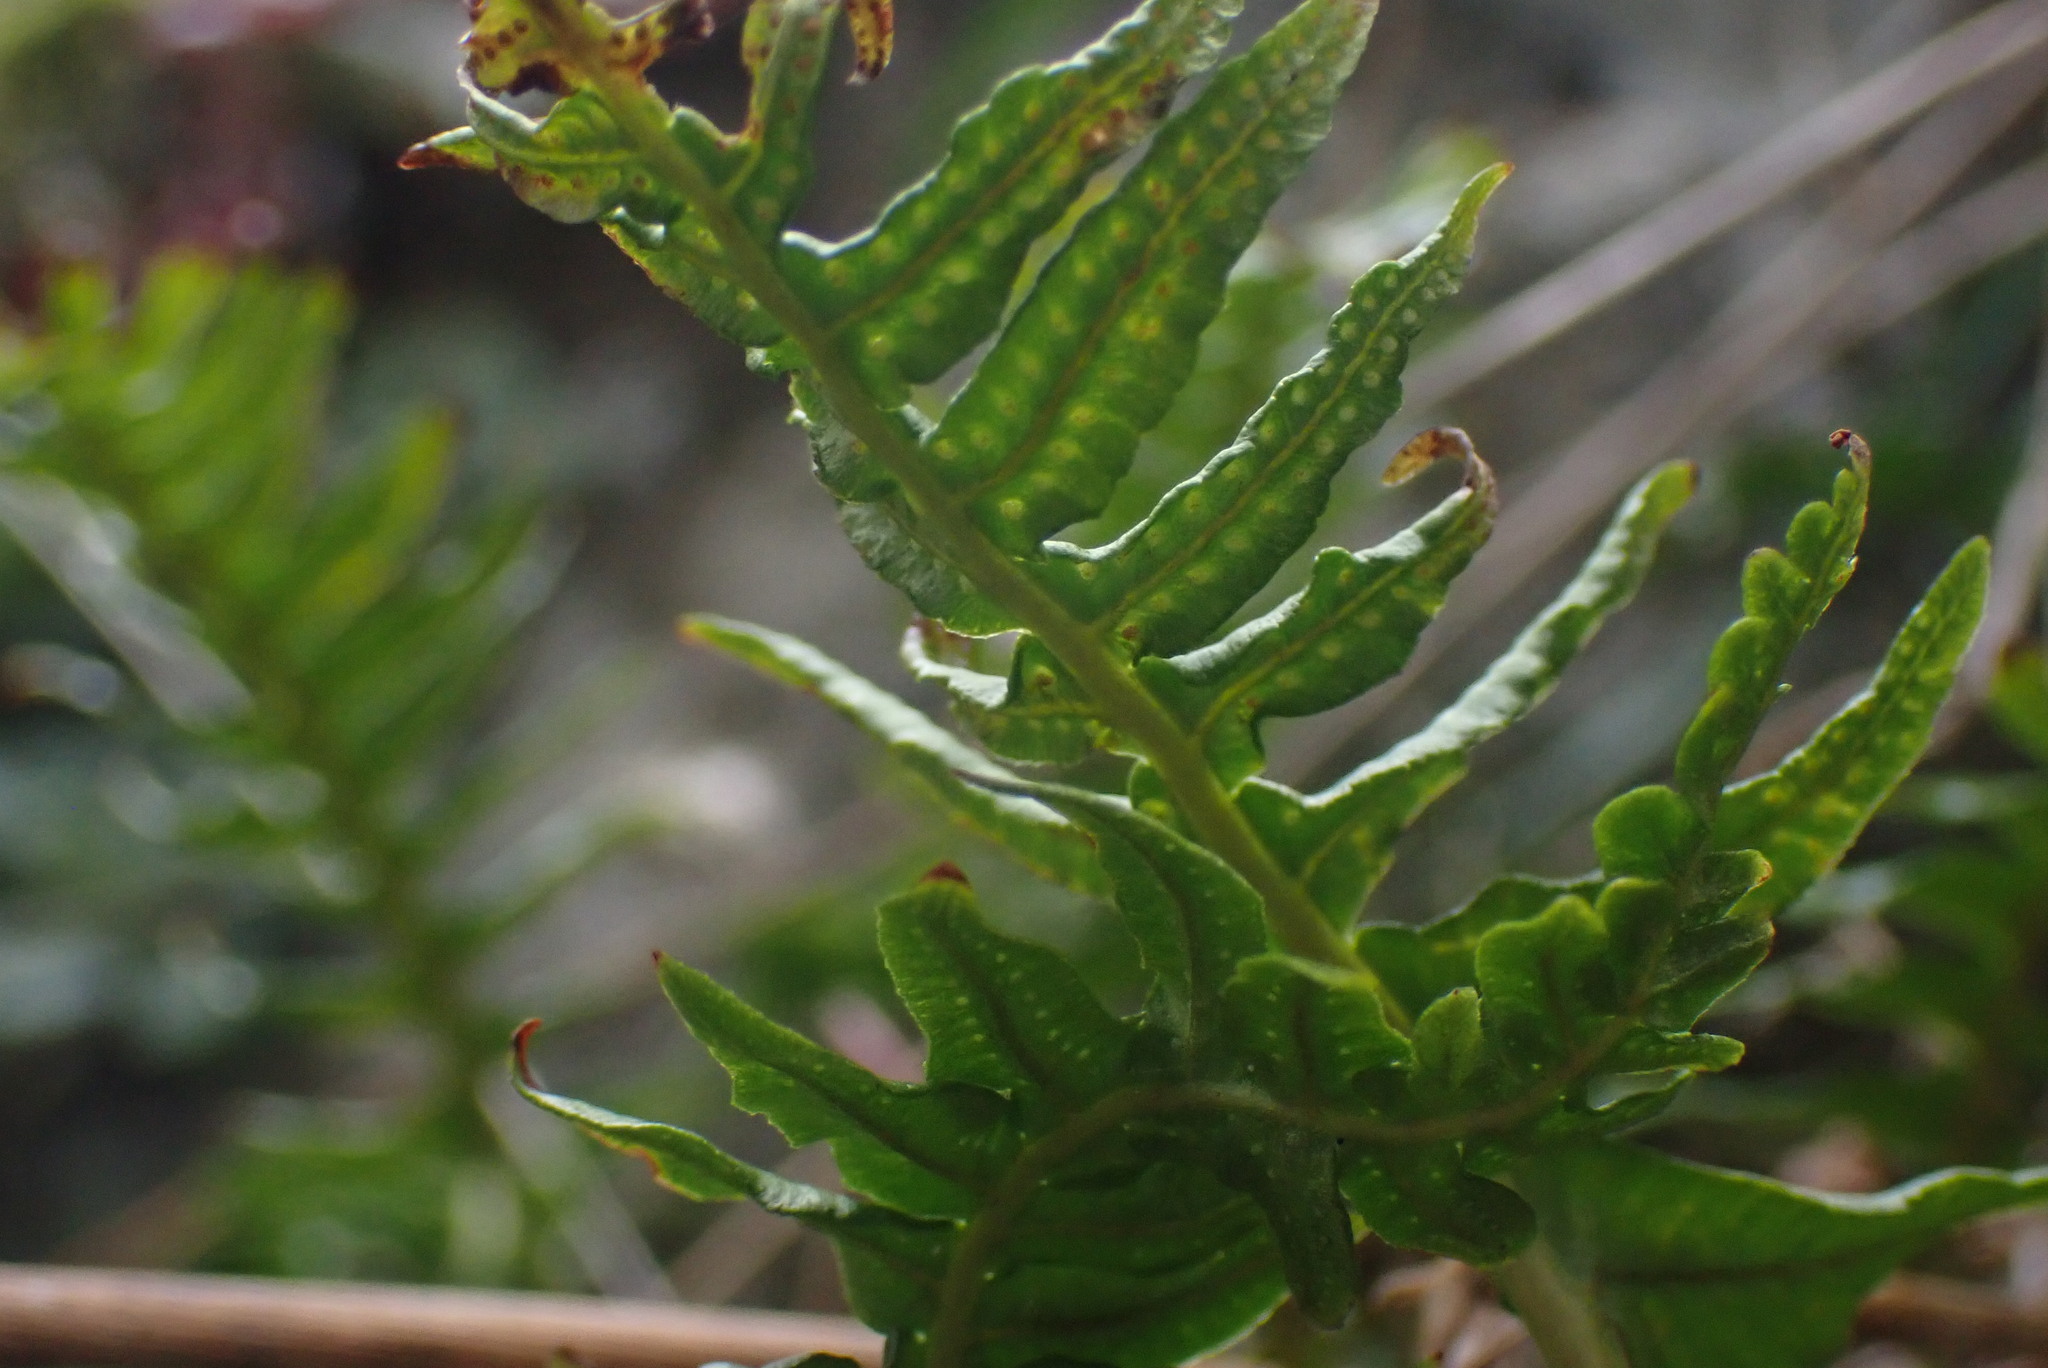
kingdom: Plantae
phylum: Tracheophyta
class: Polypodiopsida
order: Polypodiales
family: Polypodiaceae
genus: Polypodium
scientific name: Polypodium glycyrrhiza
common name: Licorice fern
